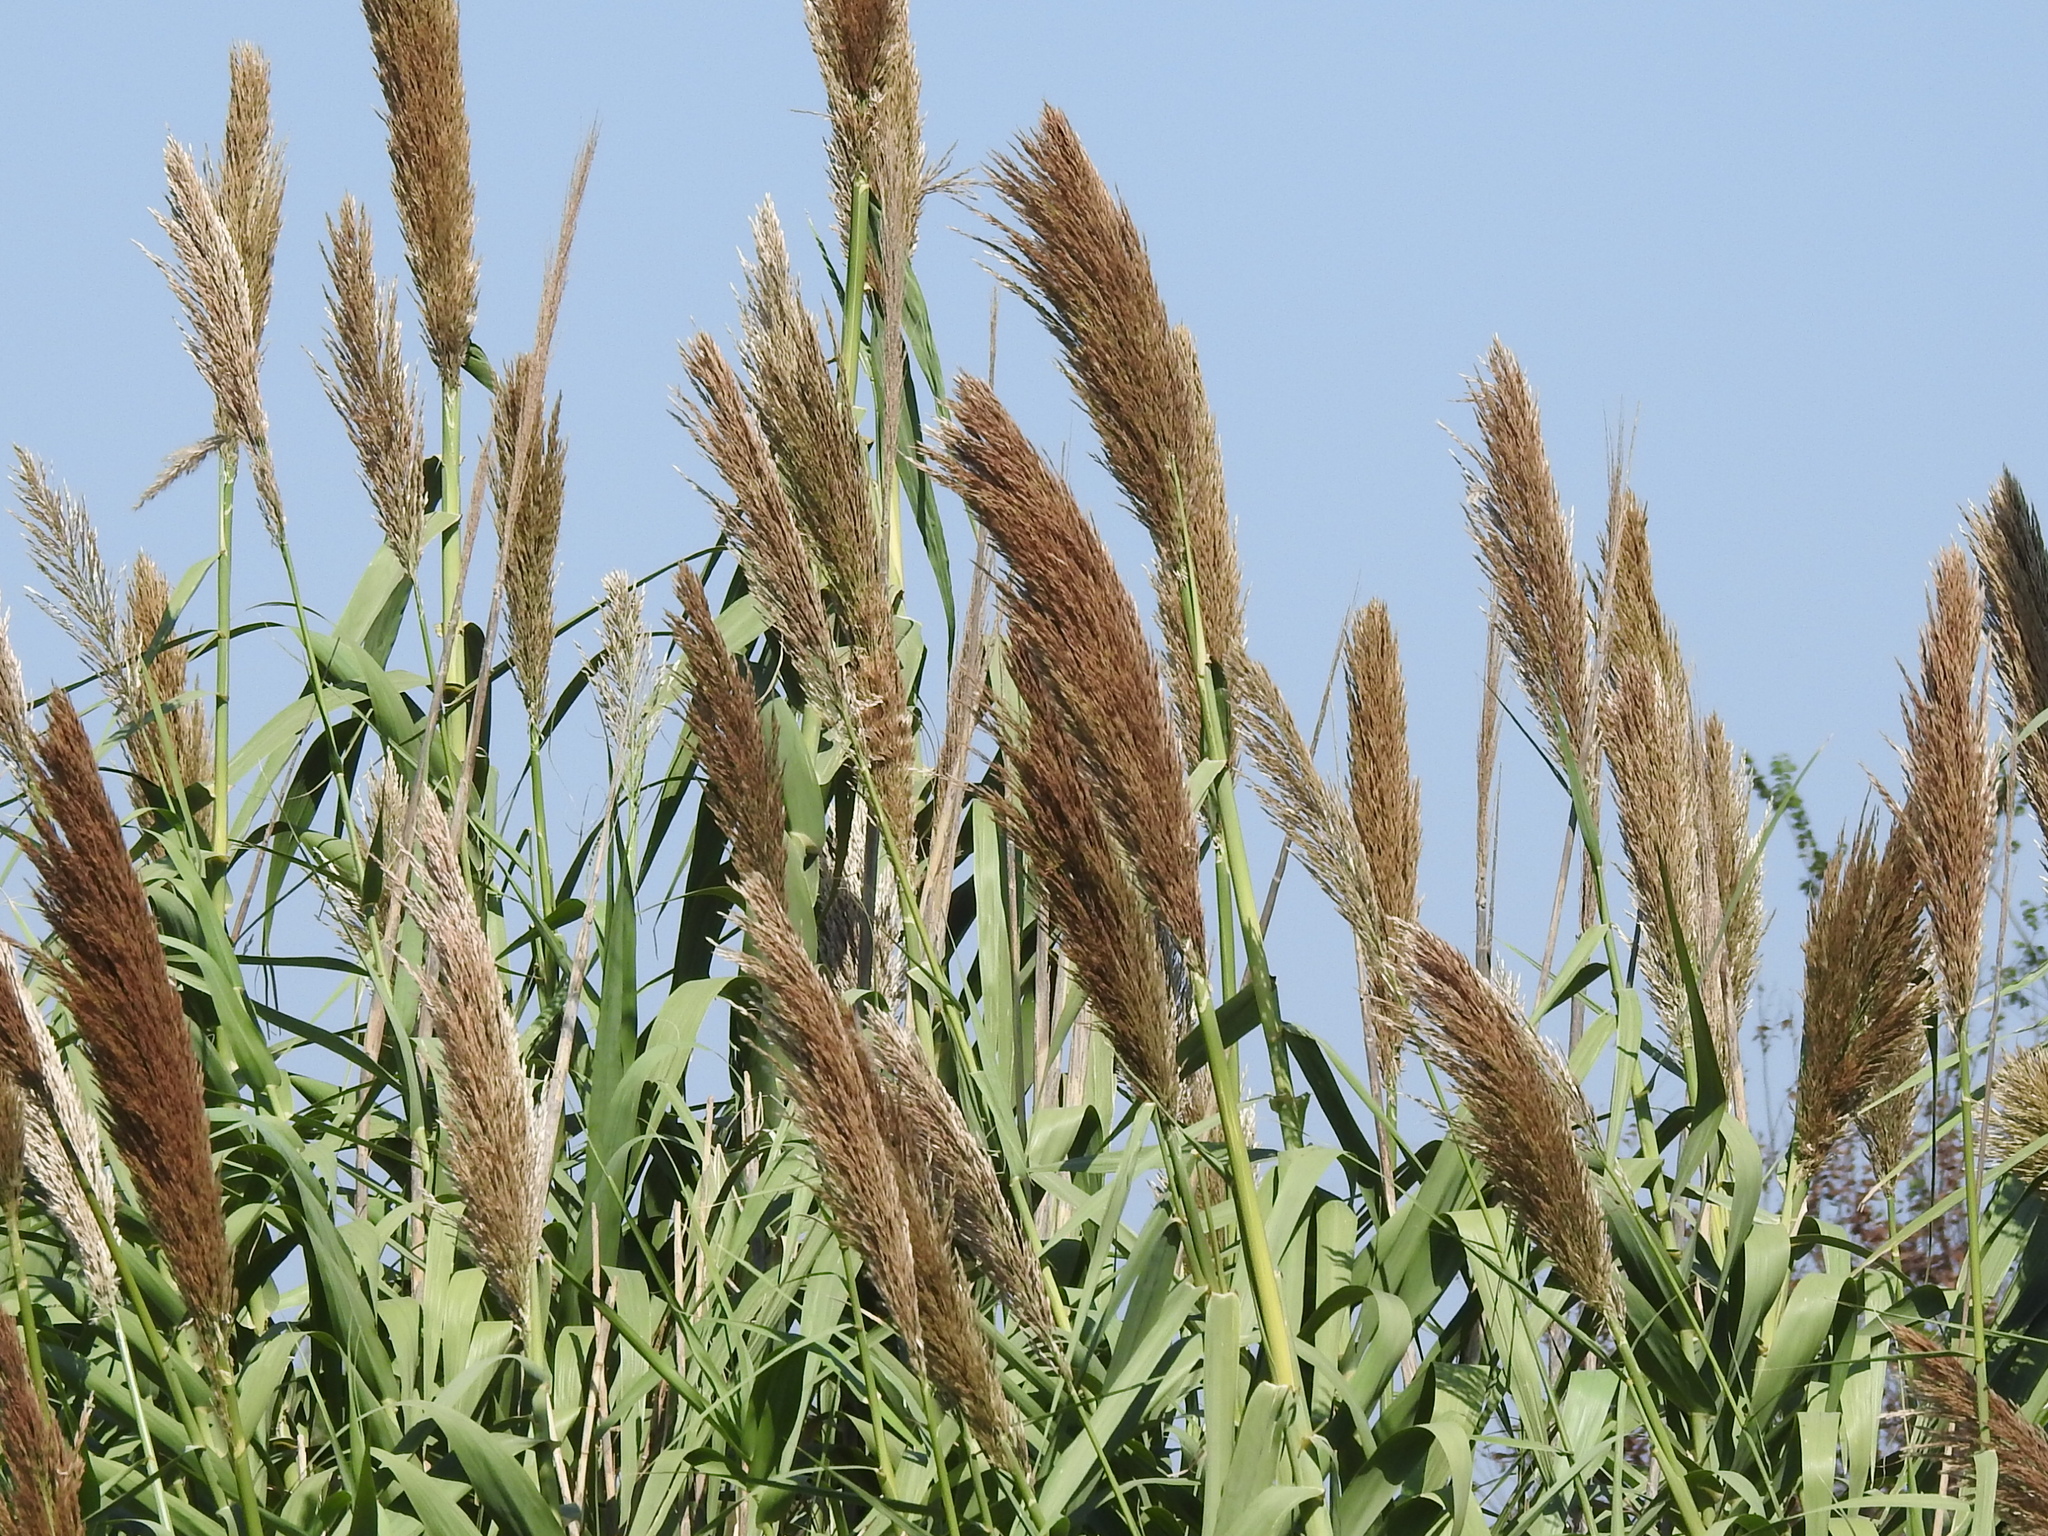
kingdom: Plantae
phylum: Tracheophyta
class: Liliopsida
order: Poales
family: Poaceae
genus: Arundo
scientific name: Arundo donax
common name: Giant reed
